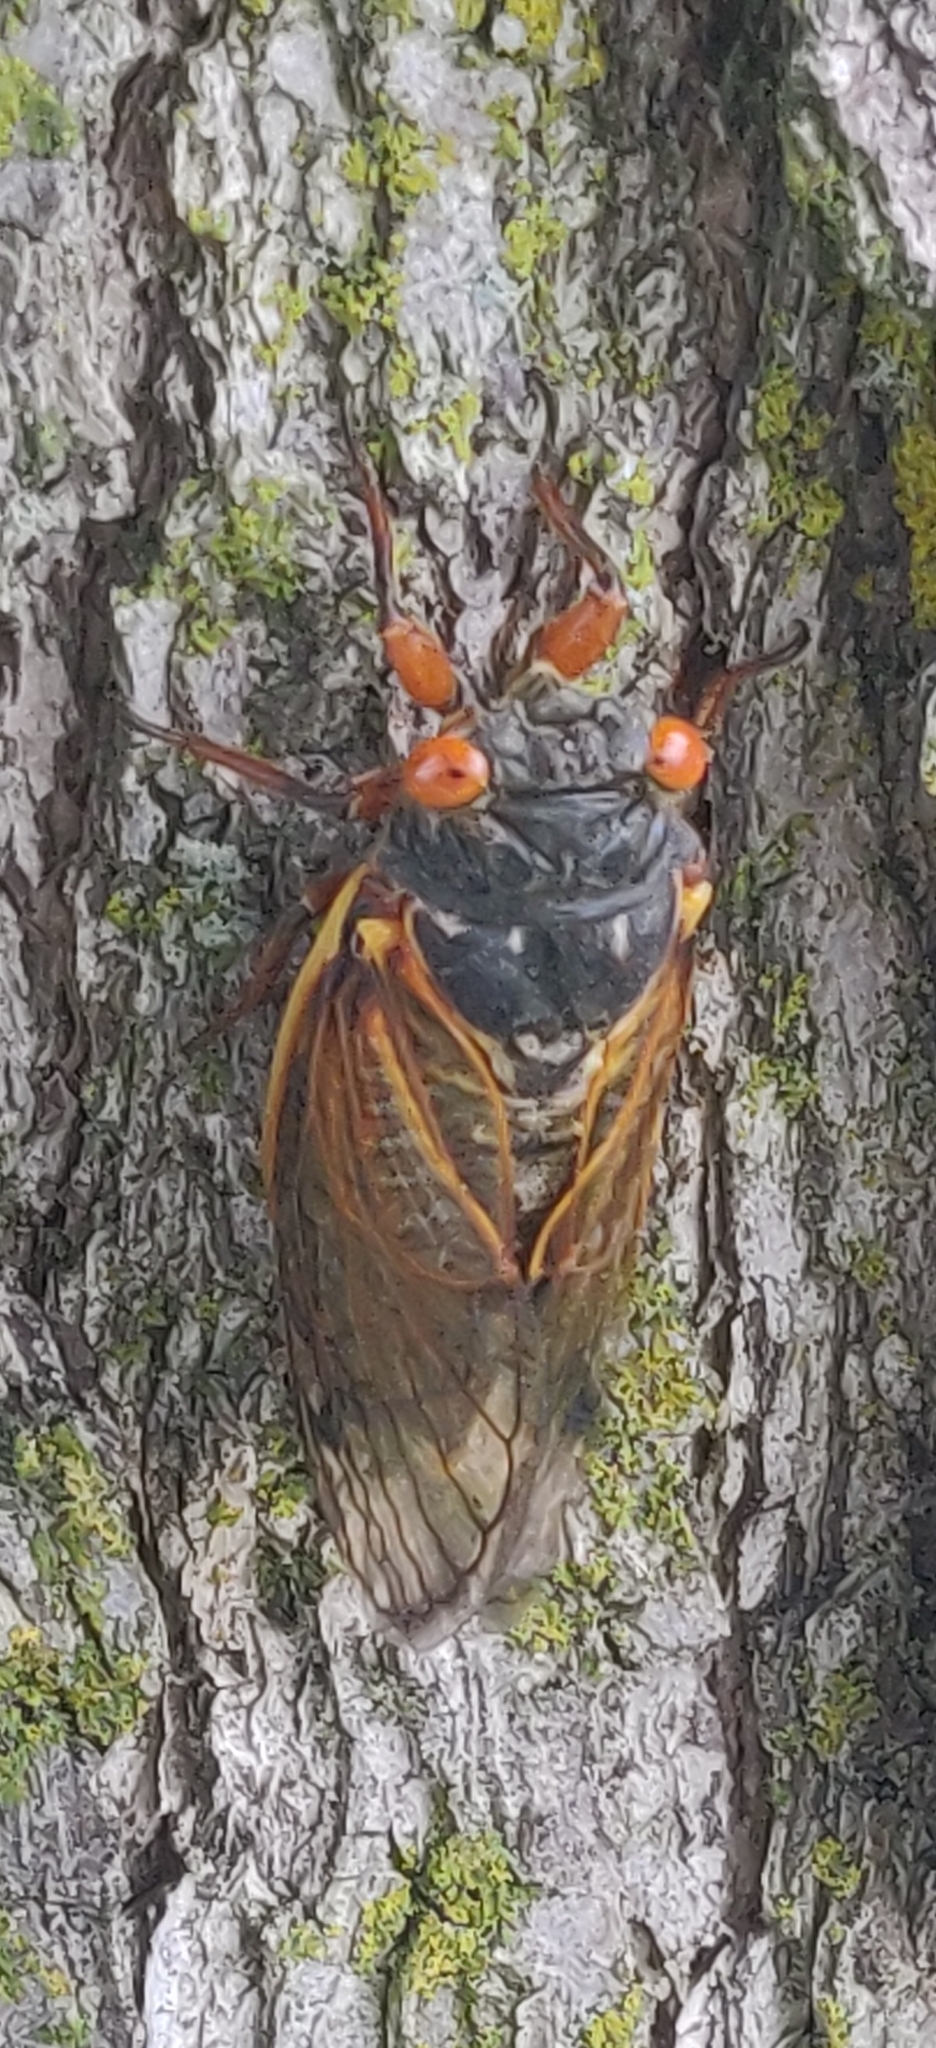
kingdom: Animalia
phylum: Arthropoda
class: Insecta
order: Hemiptera
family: Cicadidae
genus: Magicicada
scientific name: Magicicada
